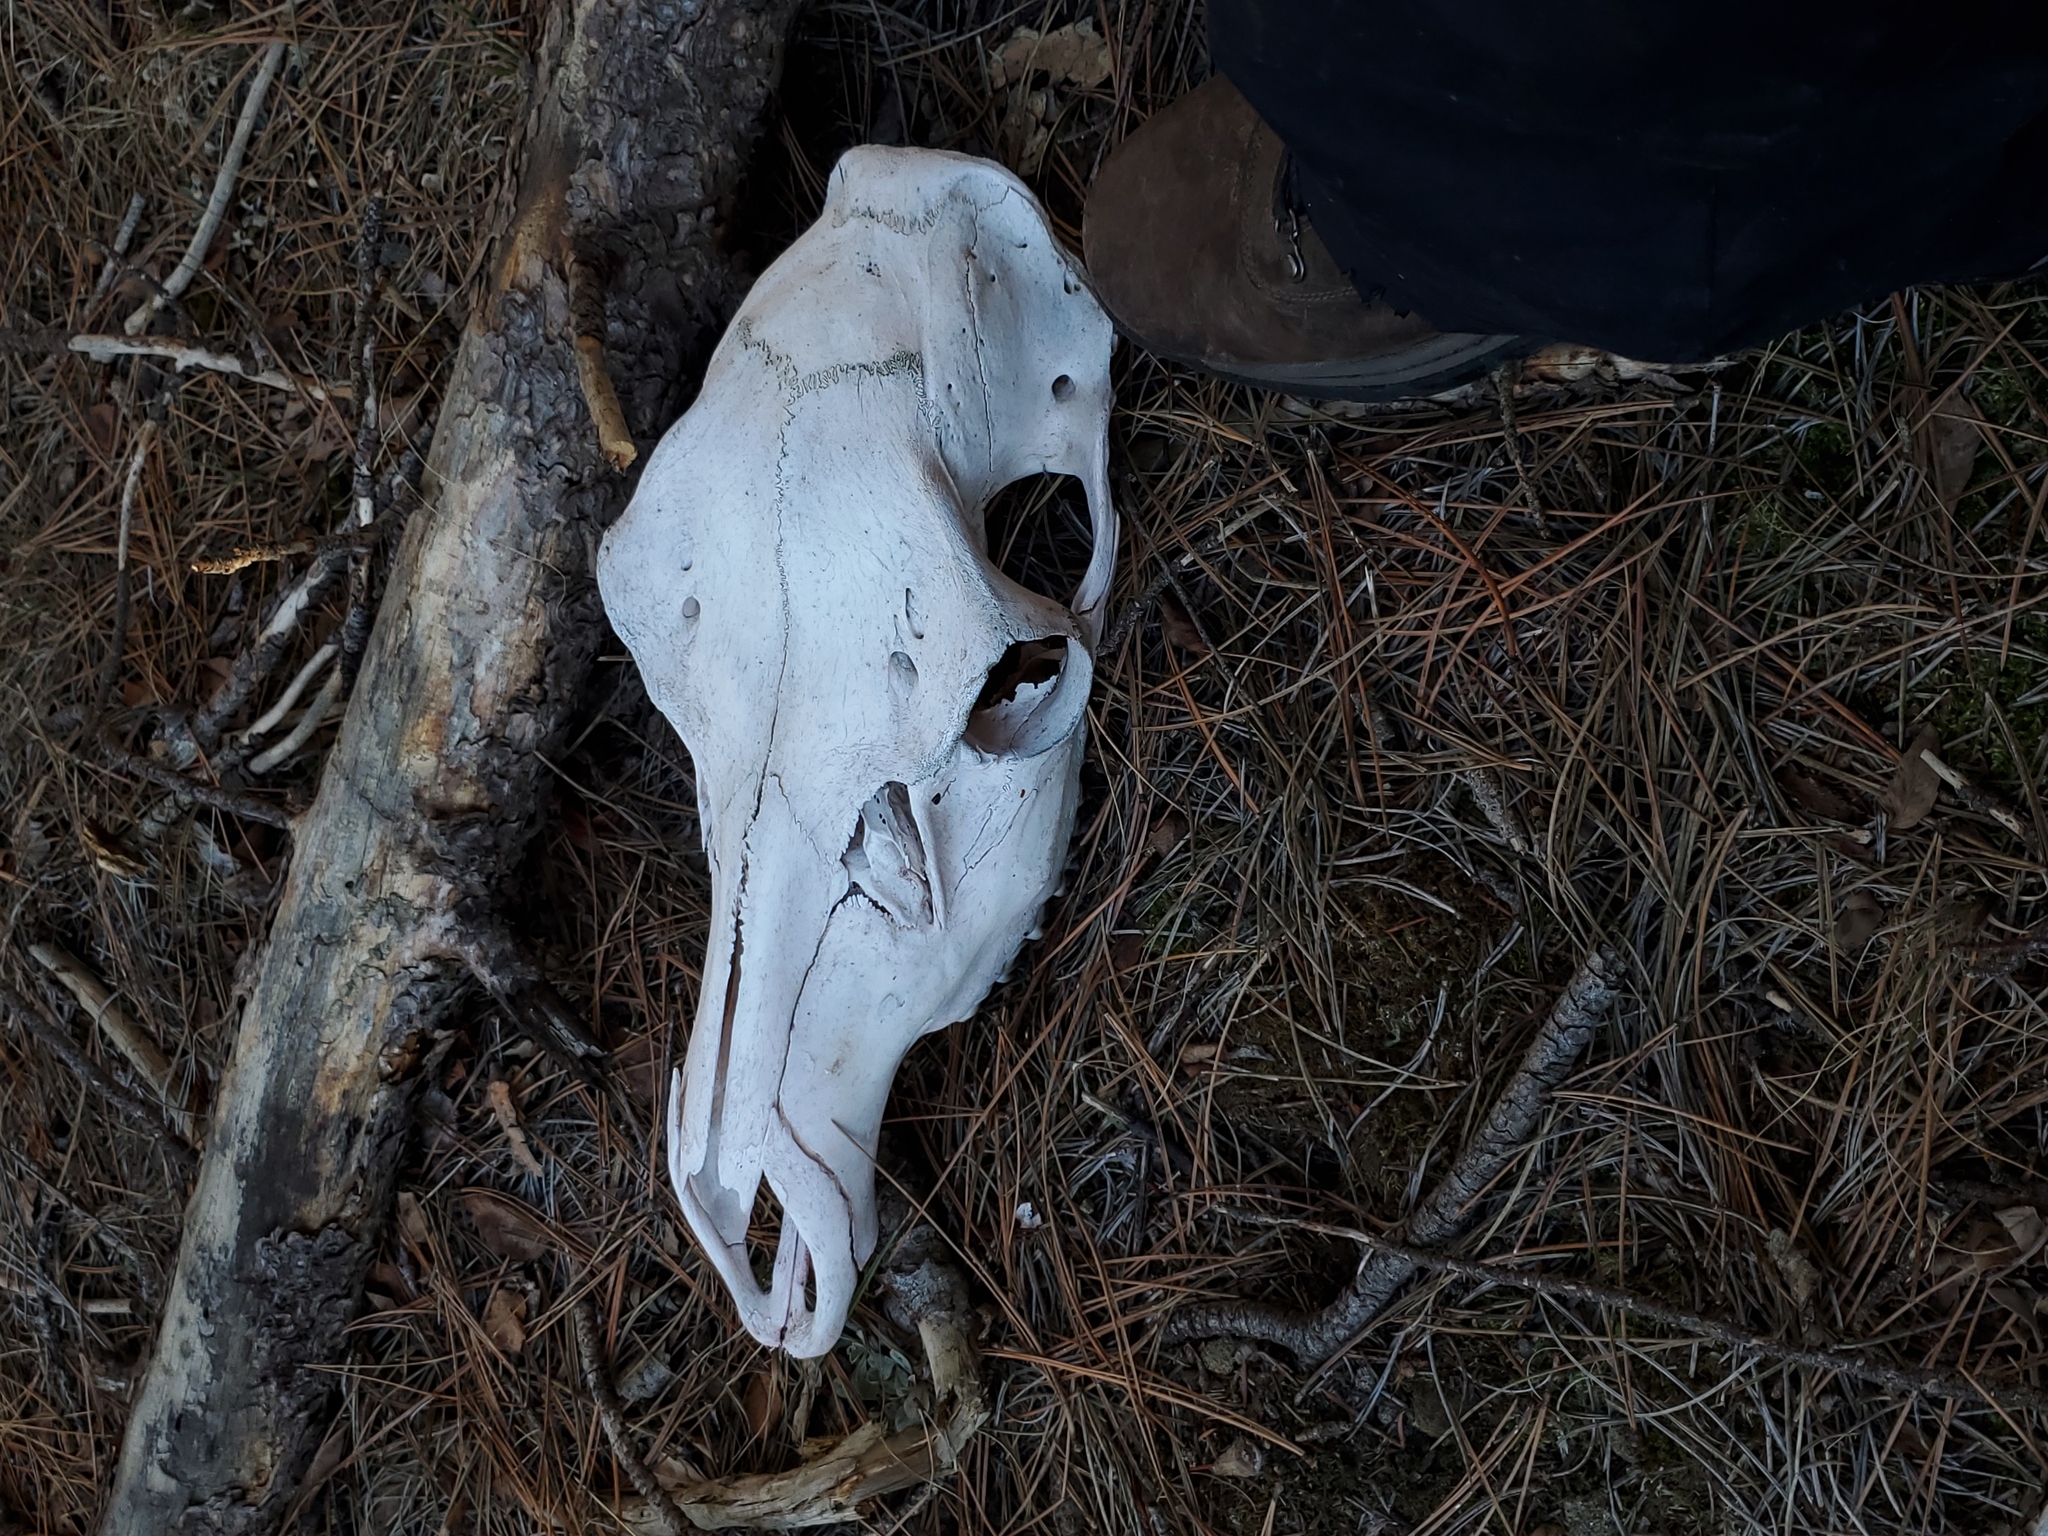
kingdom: Animalia
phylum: Chordata
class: Mammalia
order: Artiodactyla
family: Cervidae
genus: Cervus
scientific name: Cervus elaphus
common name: Red deer
